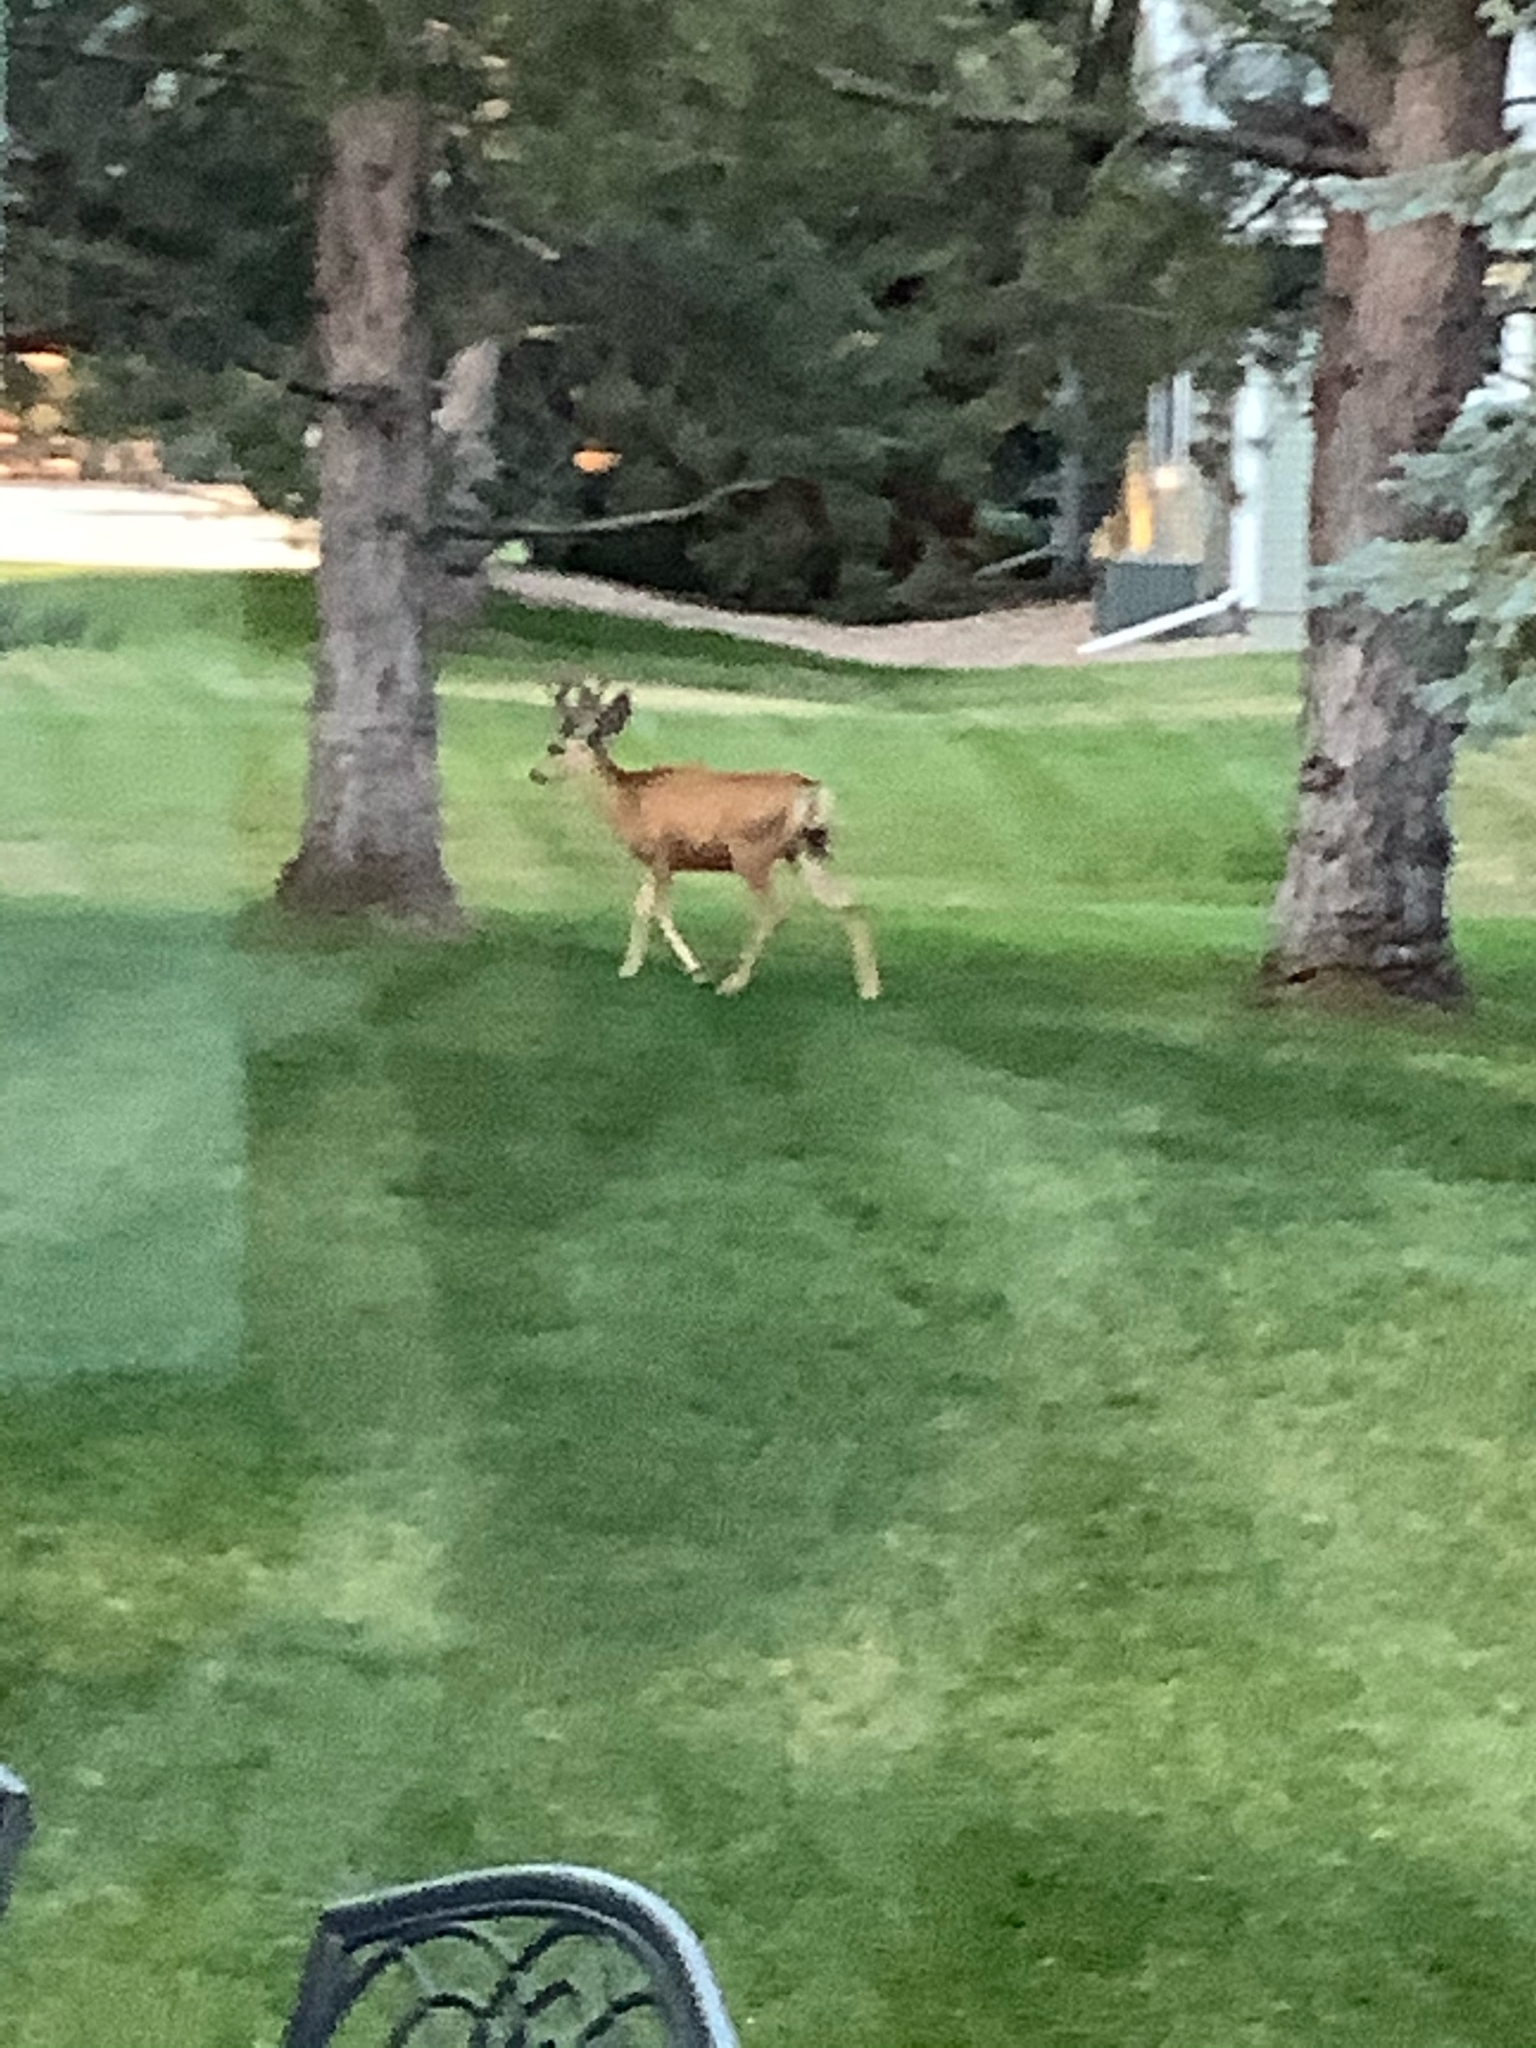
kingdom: Animalia
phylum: Chordata
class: Mammalia
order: Artiodactyla
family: Cervidae
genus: Odocoileus
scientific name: Odocoileus hemionus
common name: Mule deer
